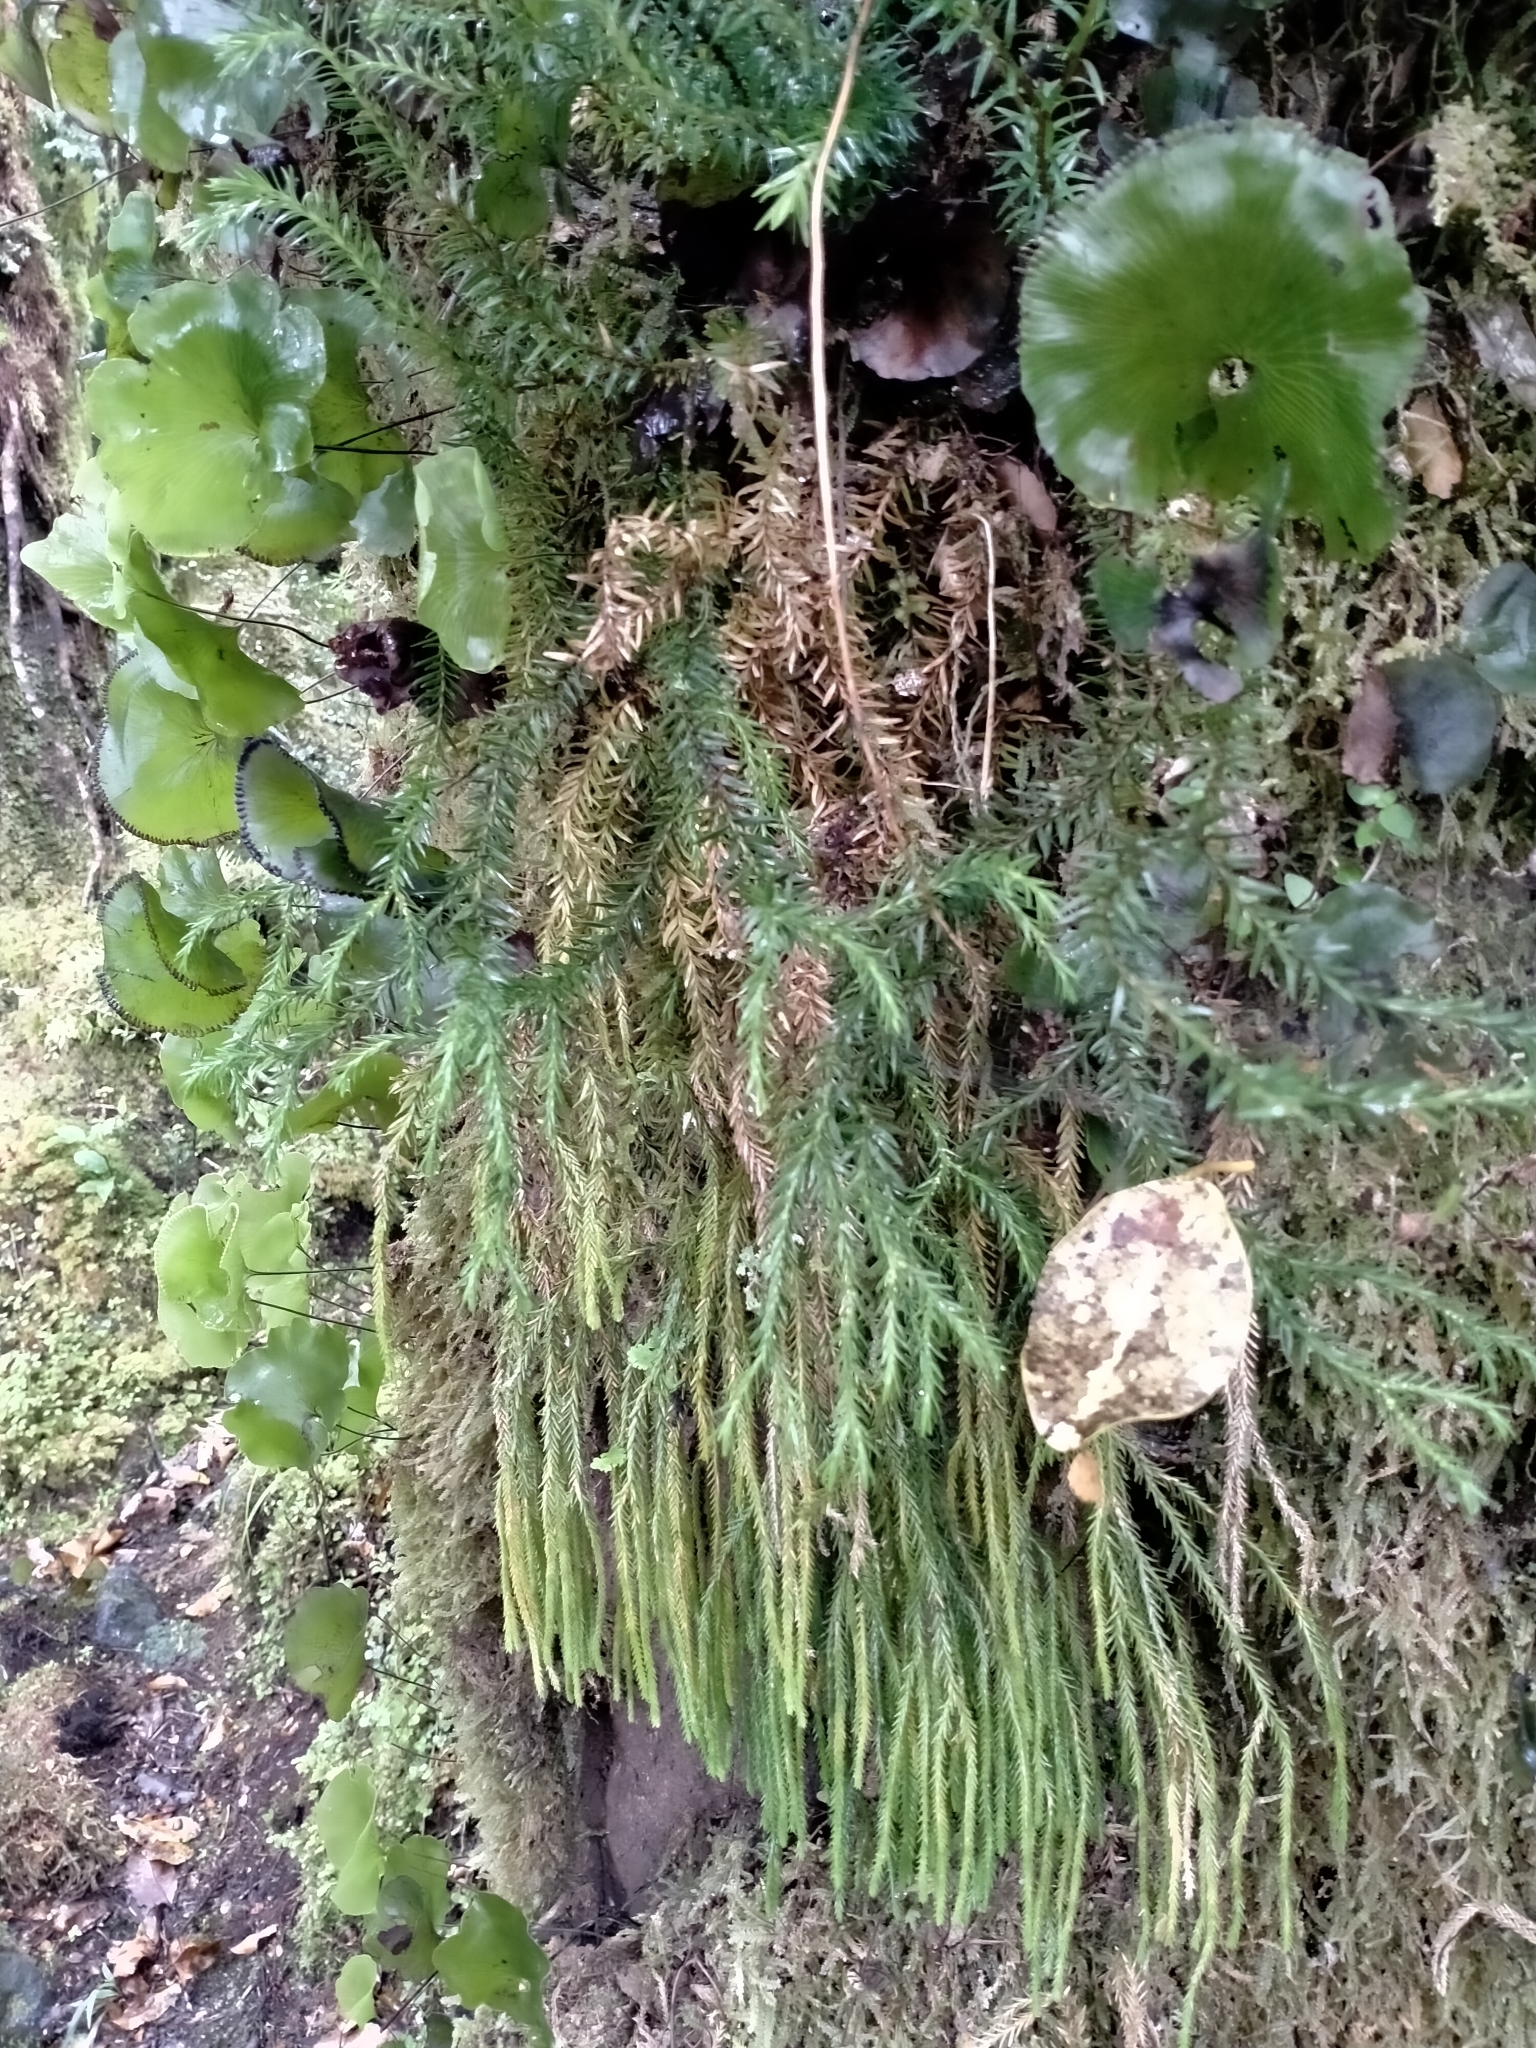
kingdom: Plantae
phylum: Tracheophyta
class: Lycopodiopsida
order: Lycopodiales
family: Lycopodiaceae
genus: Phlegmariurus
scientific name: Phlegmariurus varius
